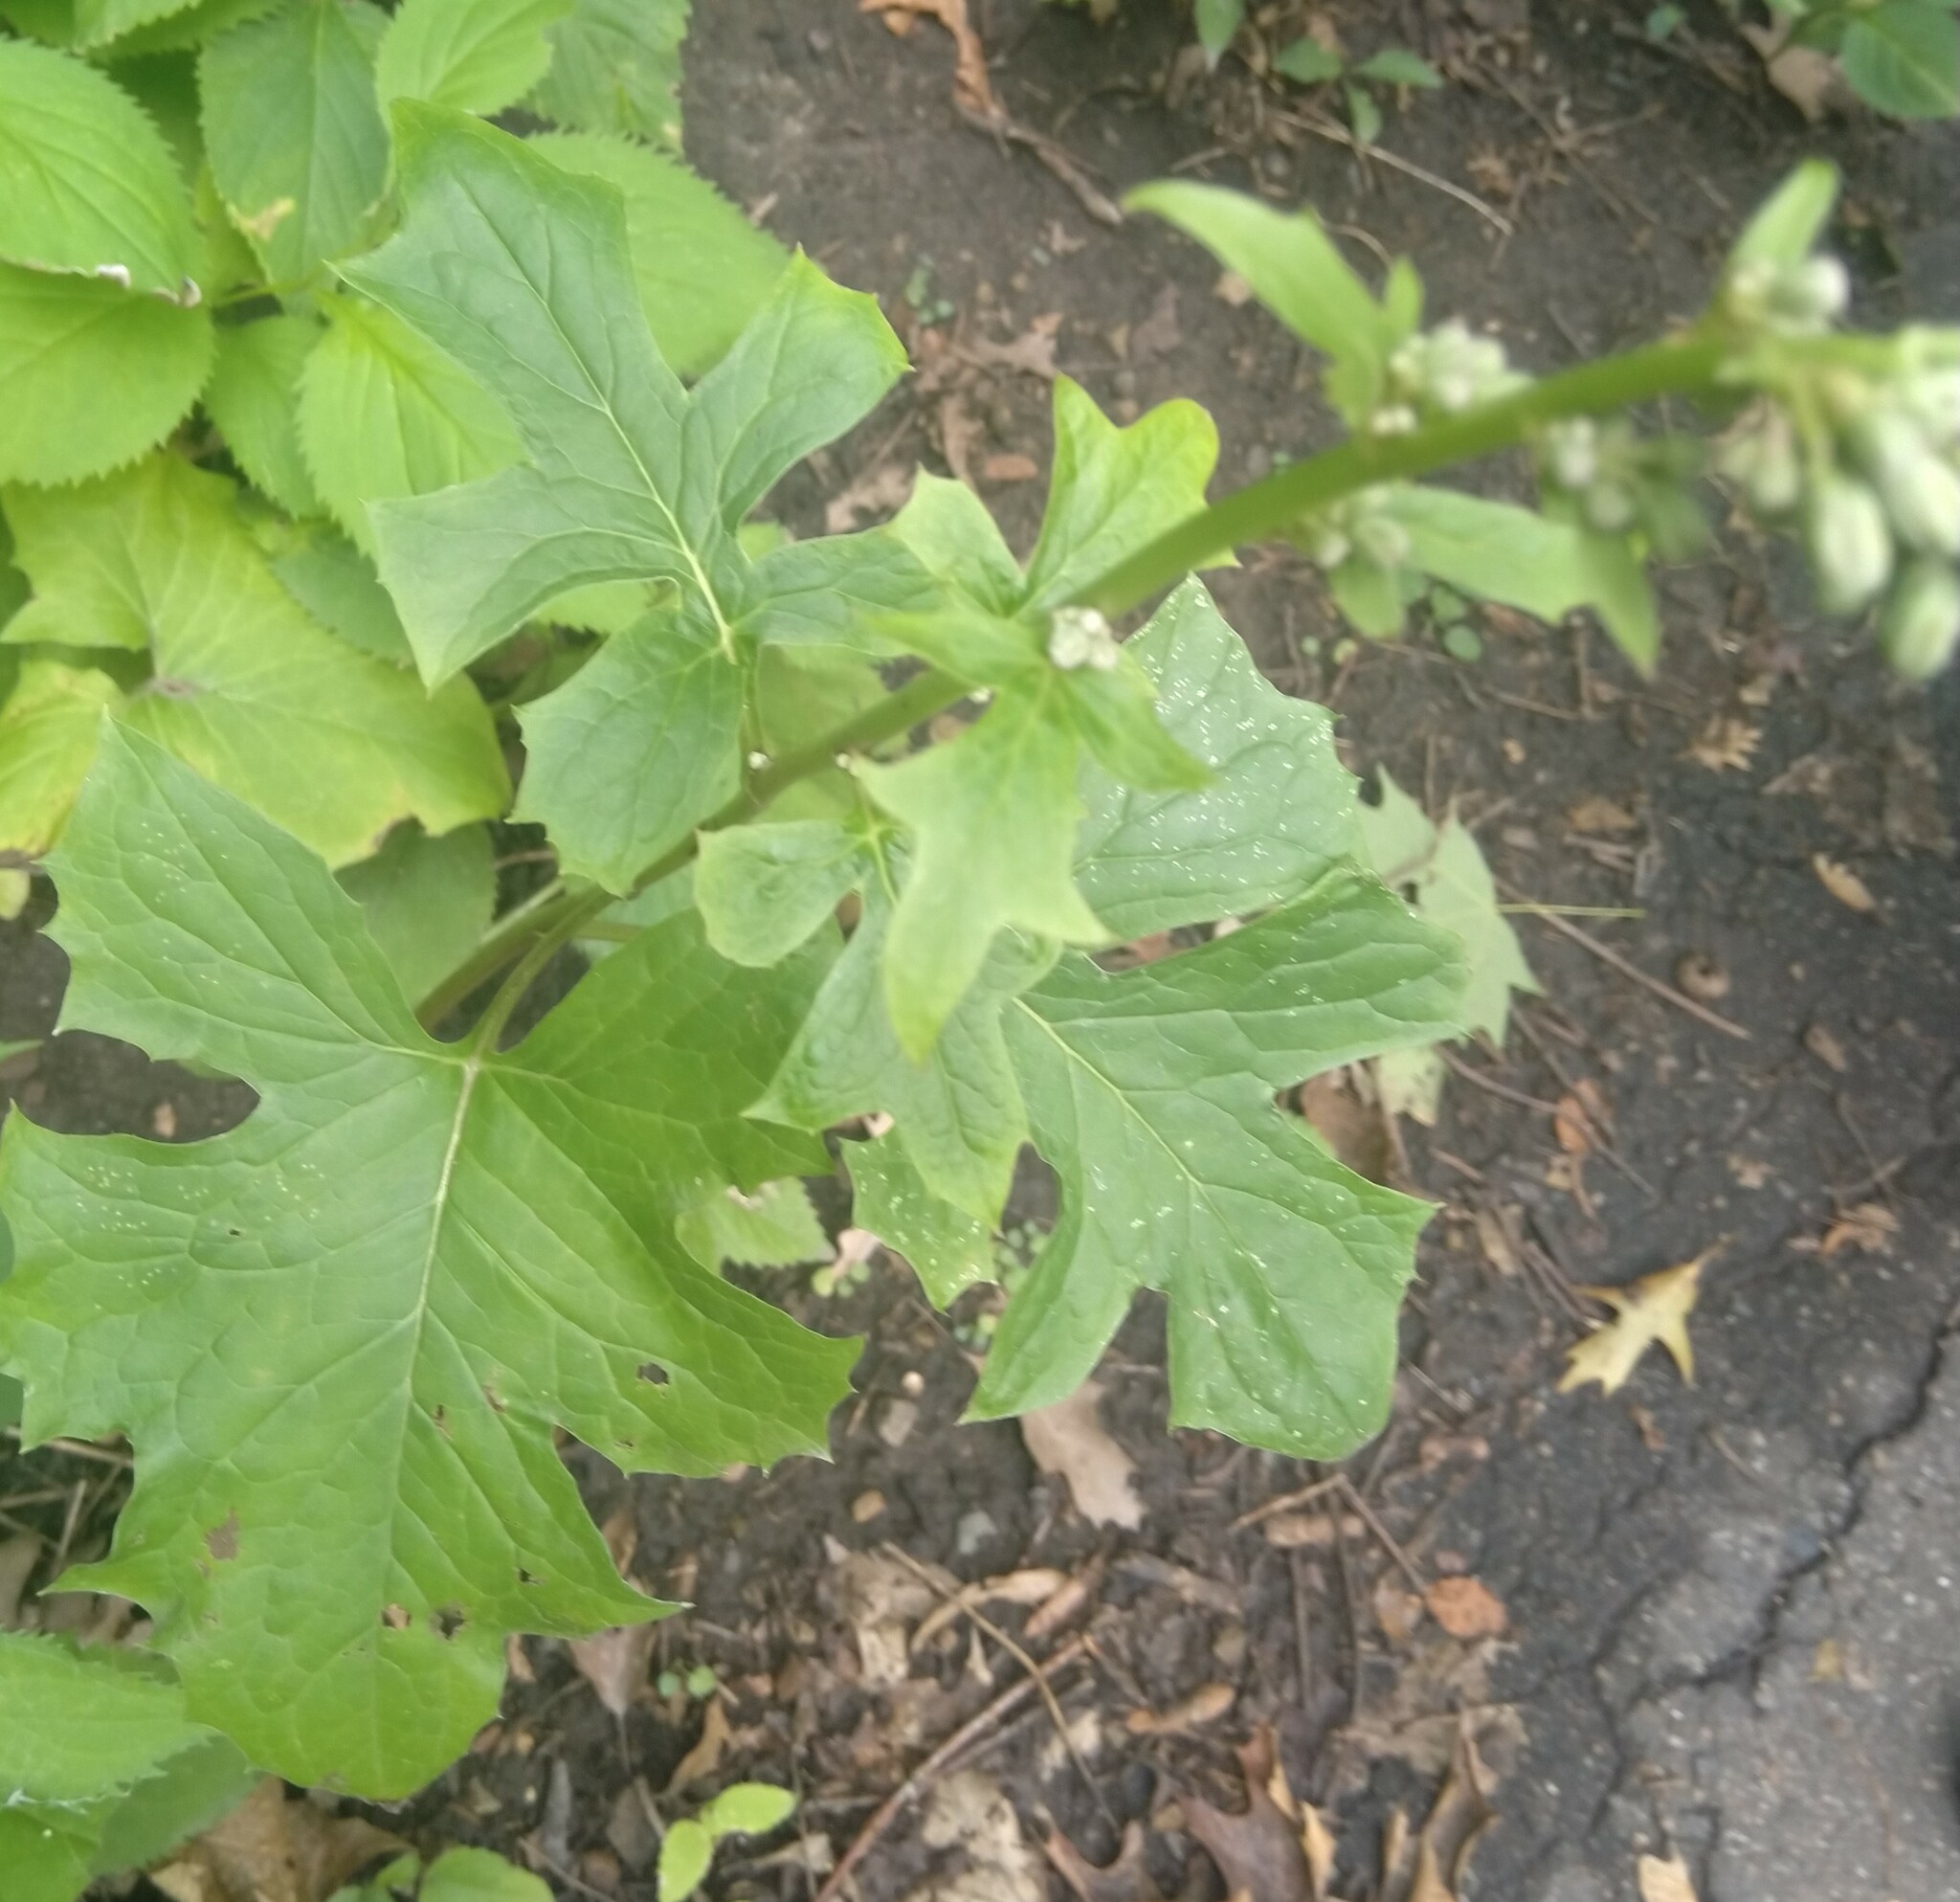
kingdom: Plantae
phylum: Tracheophyta
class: Magnoliopsida
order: Asterales
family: Asteraceae
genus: Nabalus
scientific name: Nabalus albus
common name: White rattlesnakeroot
